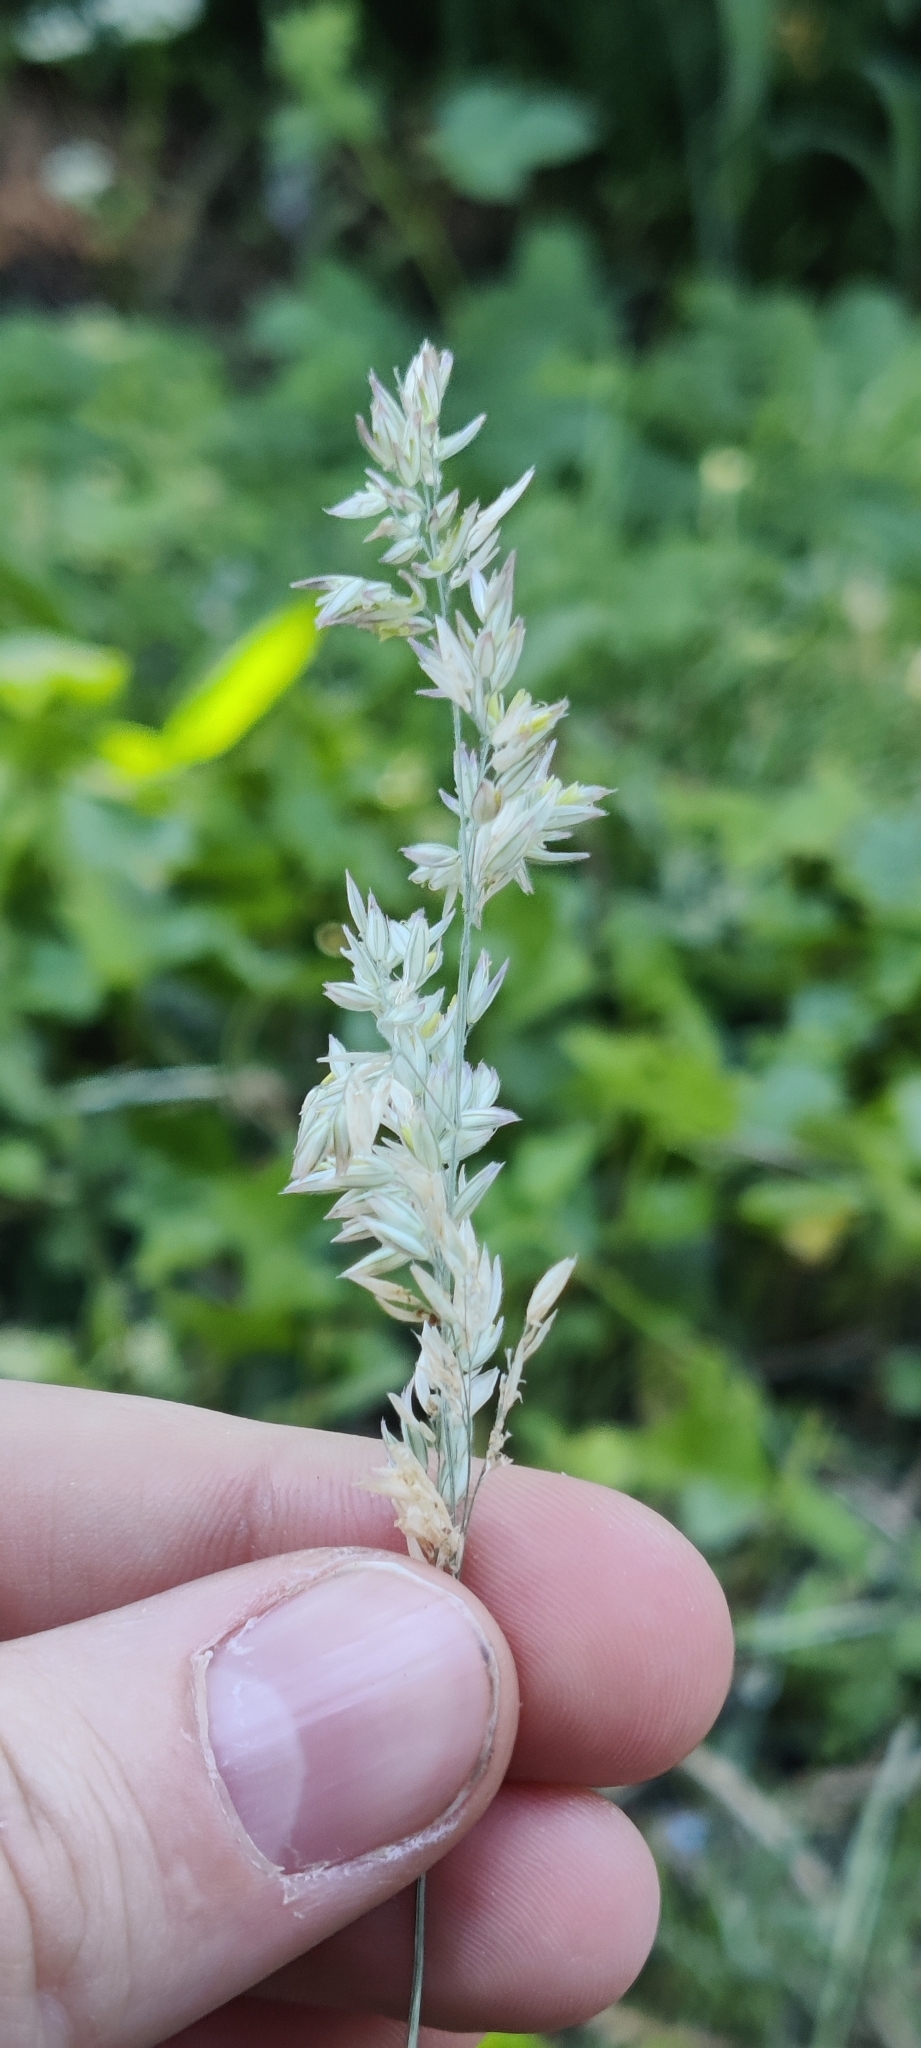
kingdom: Plantae
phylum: Tracheophyta
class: Liliopsida
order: Poales
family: Poaceae
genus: Holcus
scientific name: Holcus lanatus
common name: Yorkshire-fog
